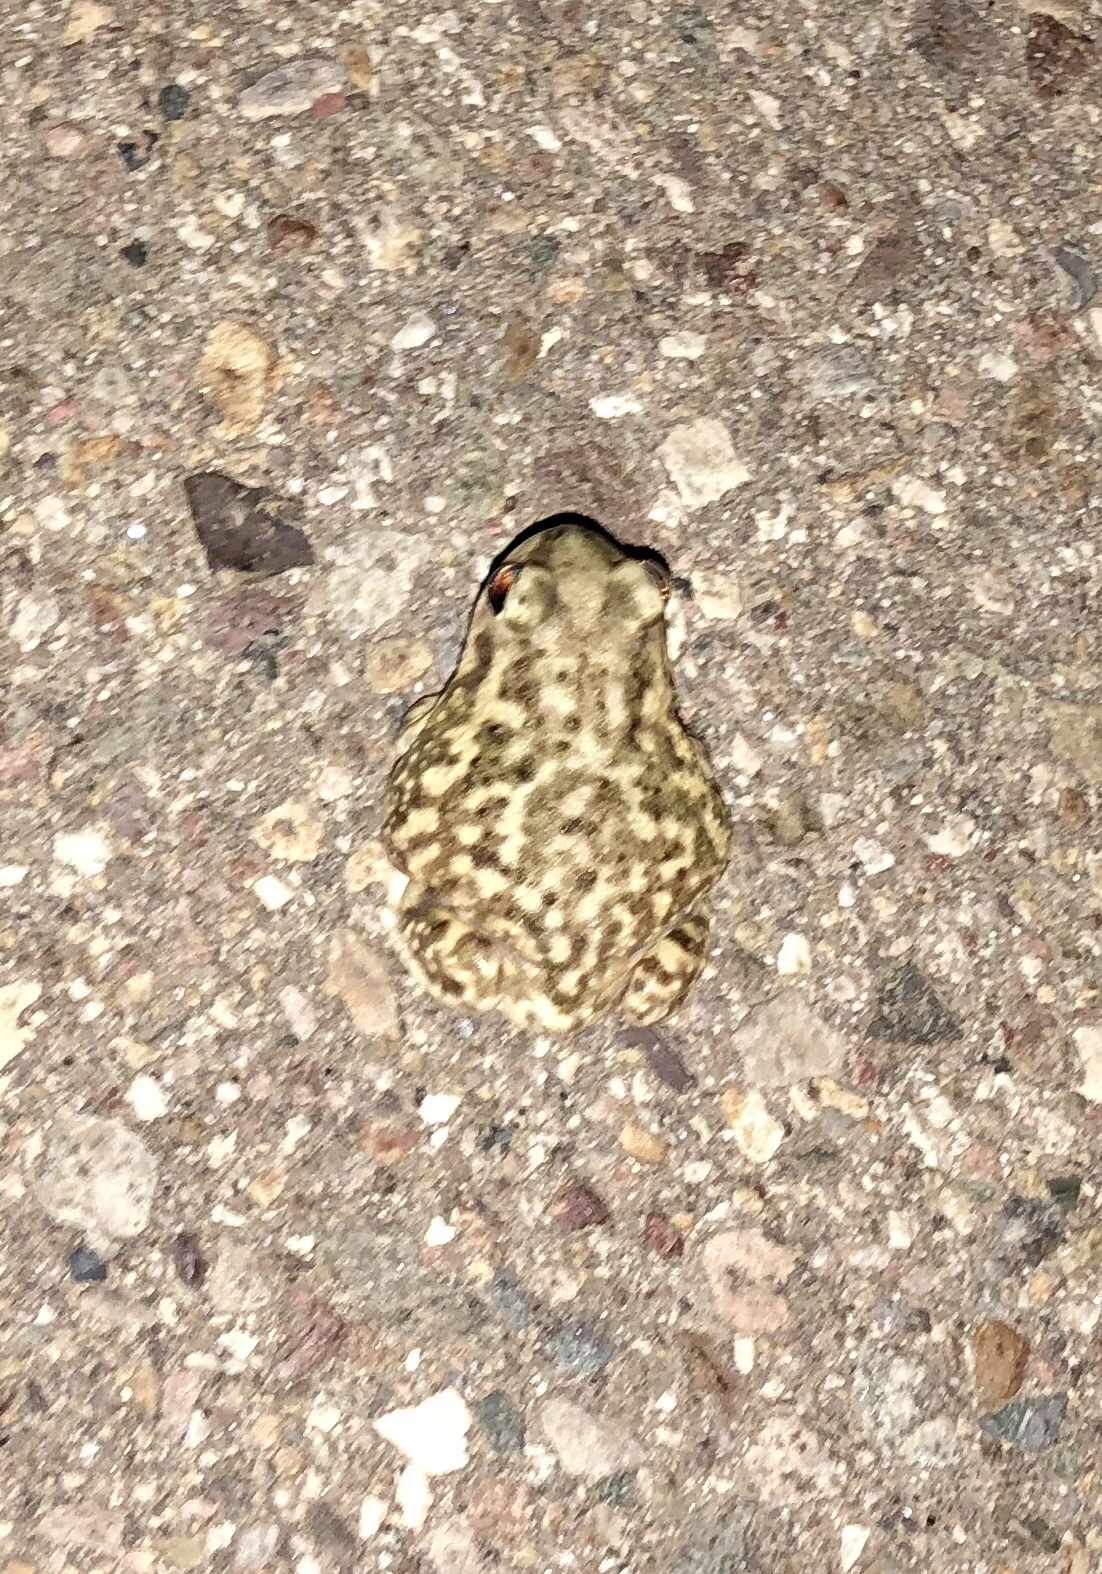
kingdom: Animalia
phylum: Chordata
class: Amphibia
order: Anura
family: Scaphiopodidae
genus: Scaphiopus
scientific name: Scaphiopus couchii
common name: Couch's spadefoot toad
